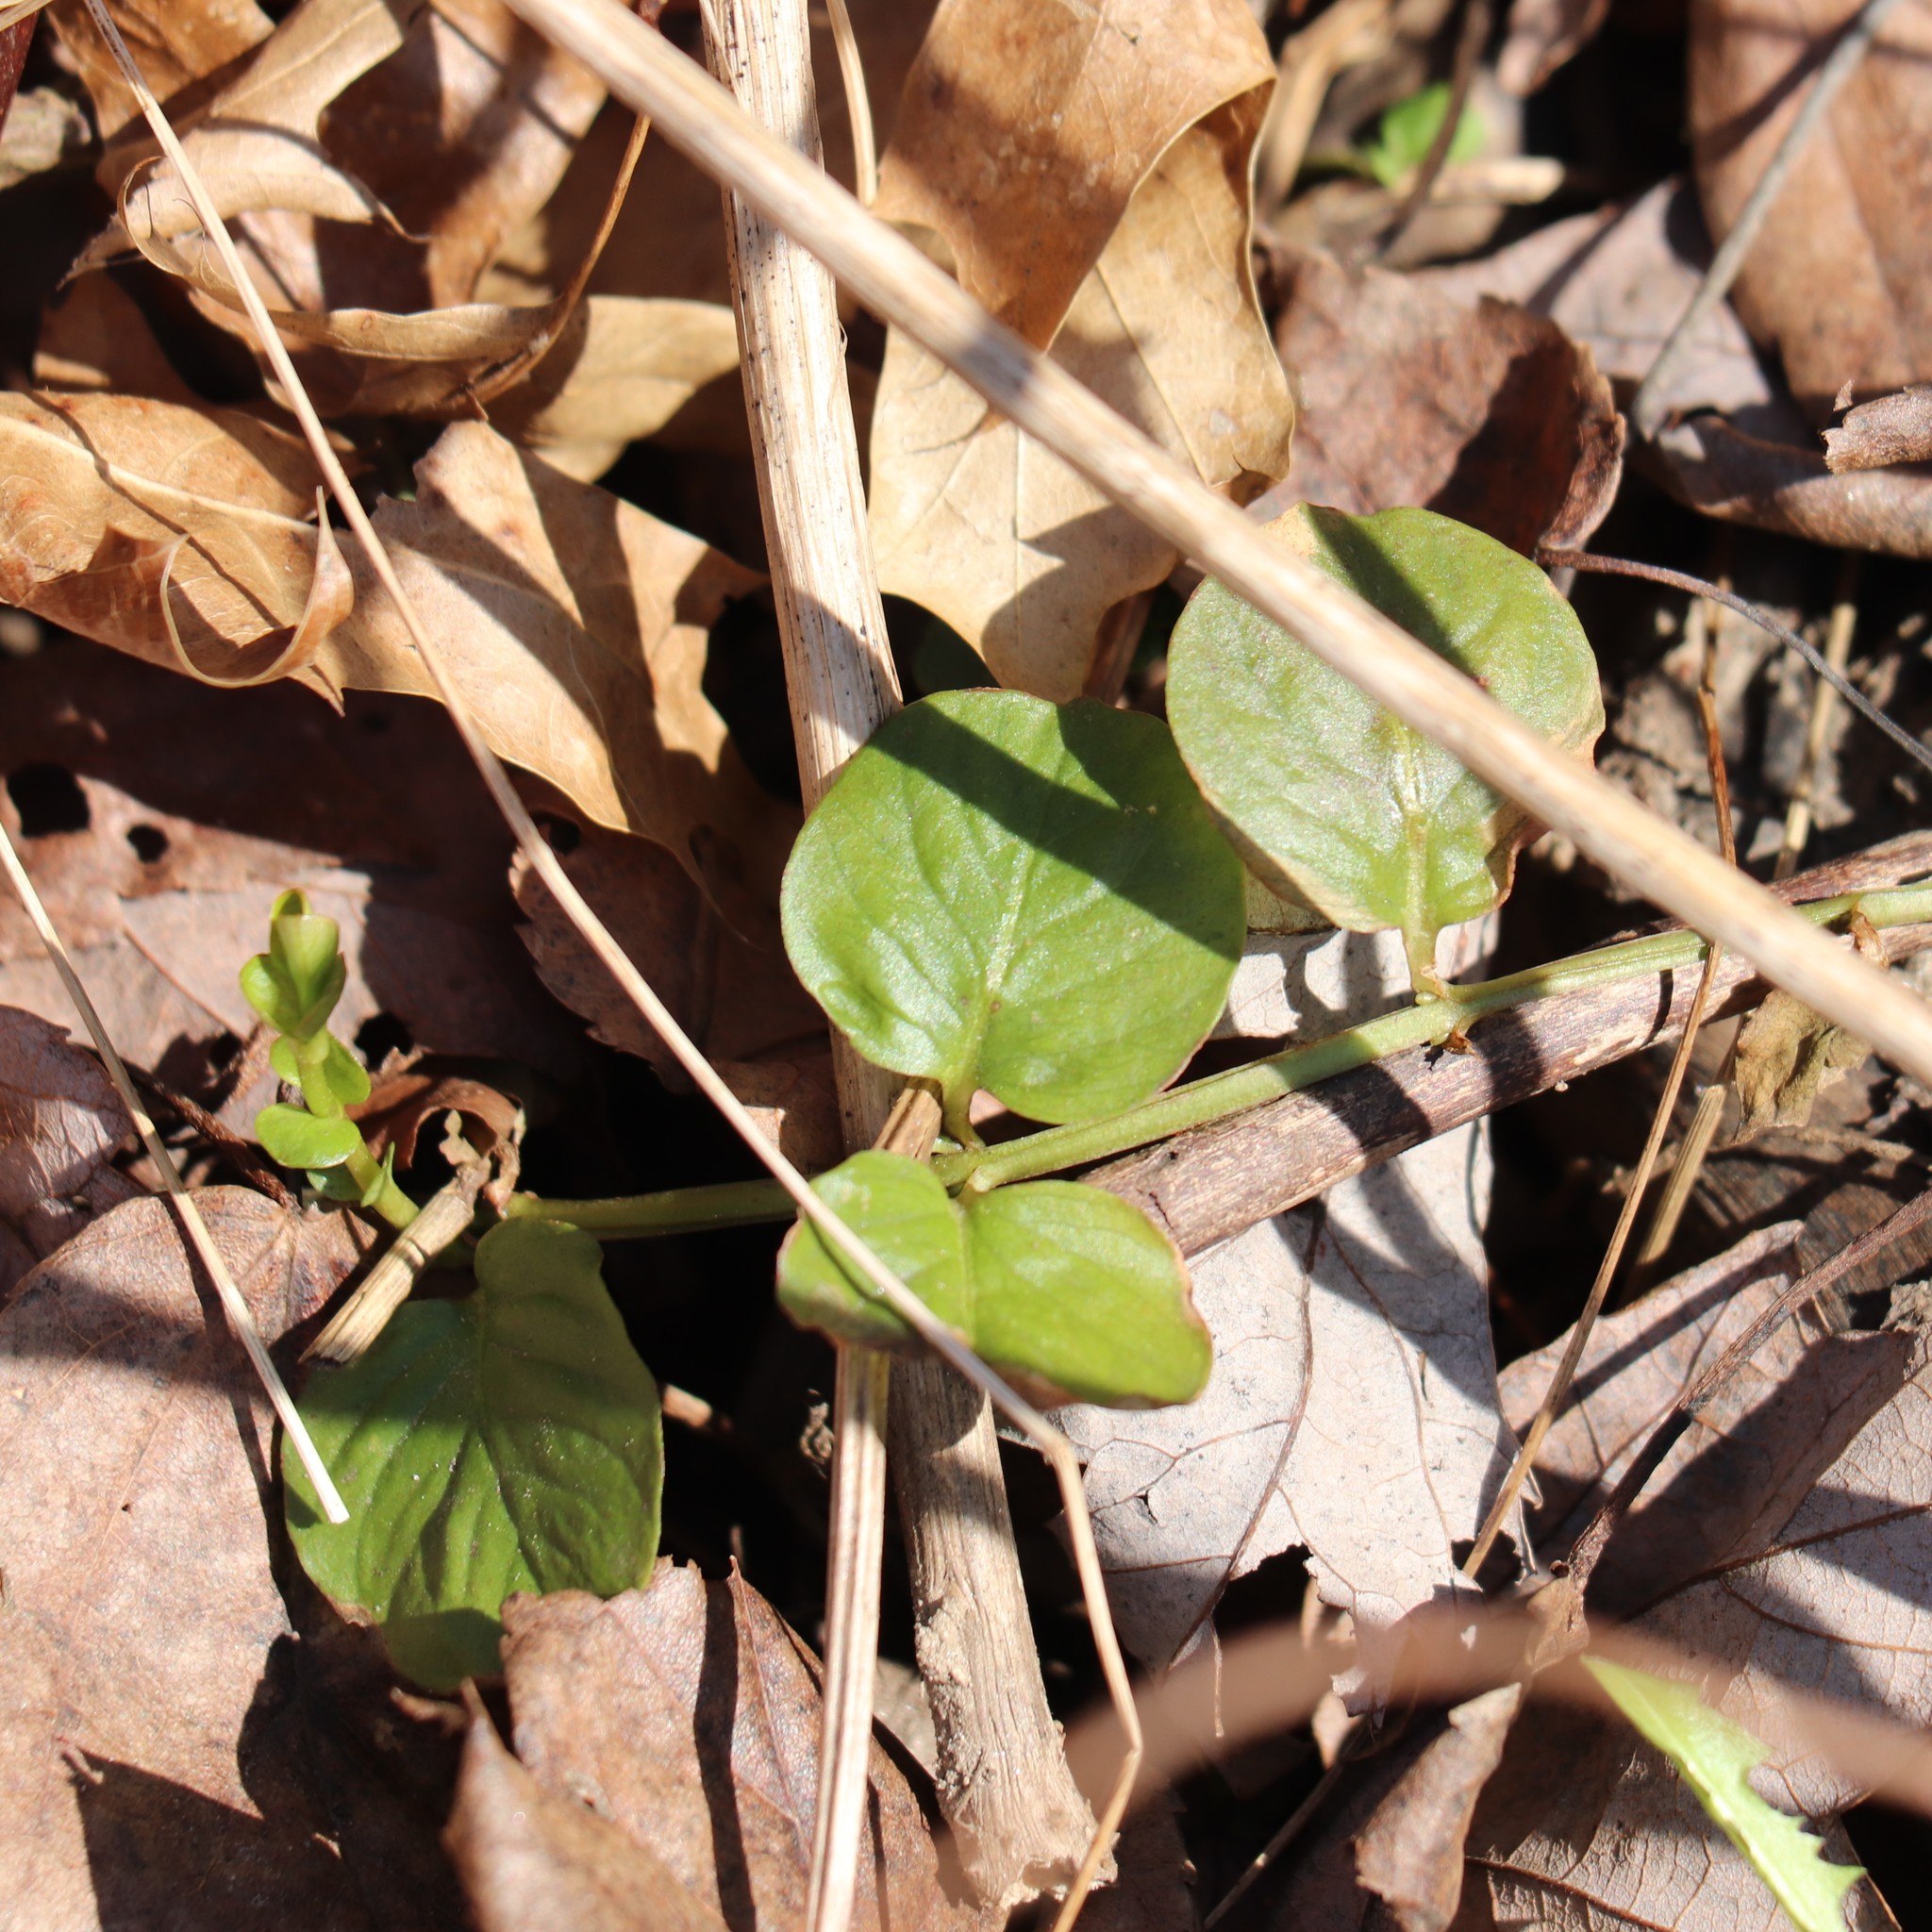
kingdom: Plantae
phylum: Tracheophyta
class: Magnoliopsida
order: Ericales
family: Primulaceae
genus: Lysimachia
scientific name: Lysimachia nummularia
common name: Moneywort
